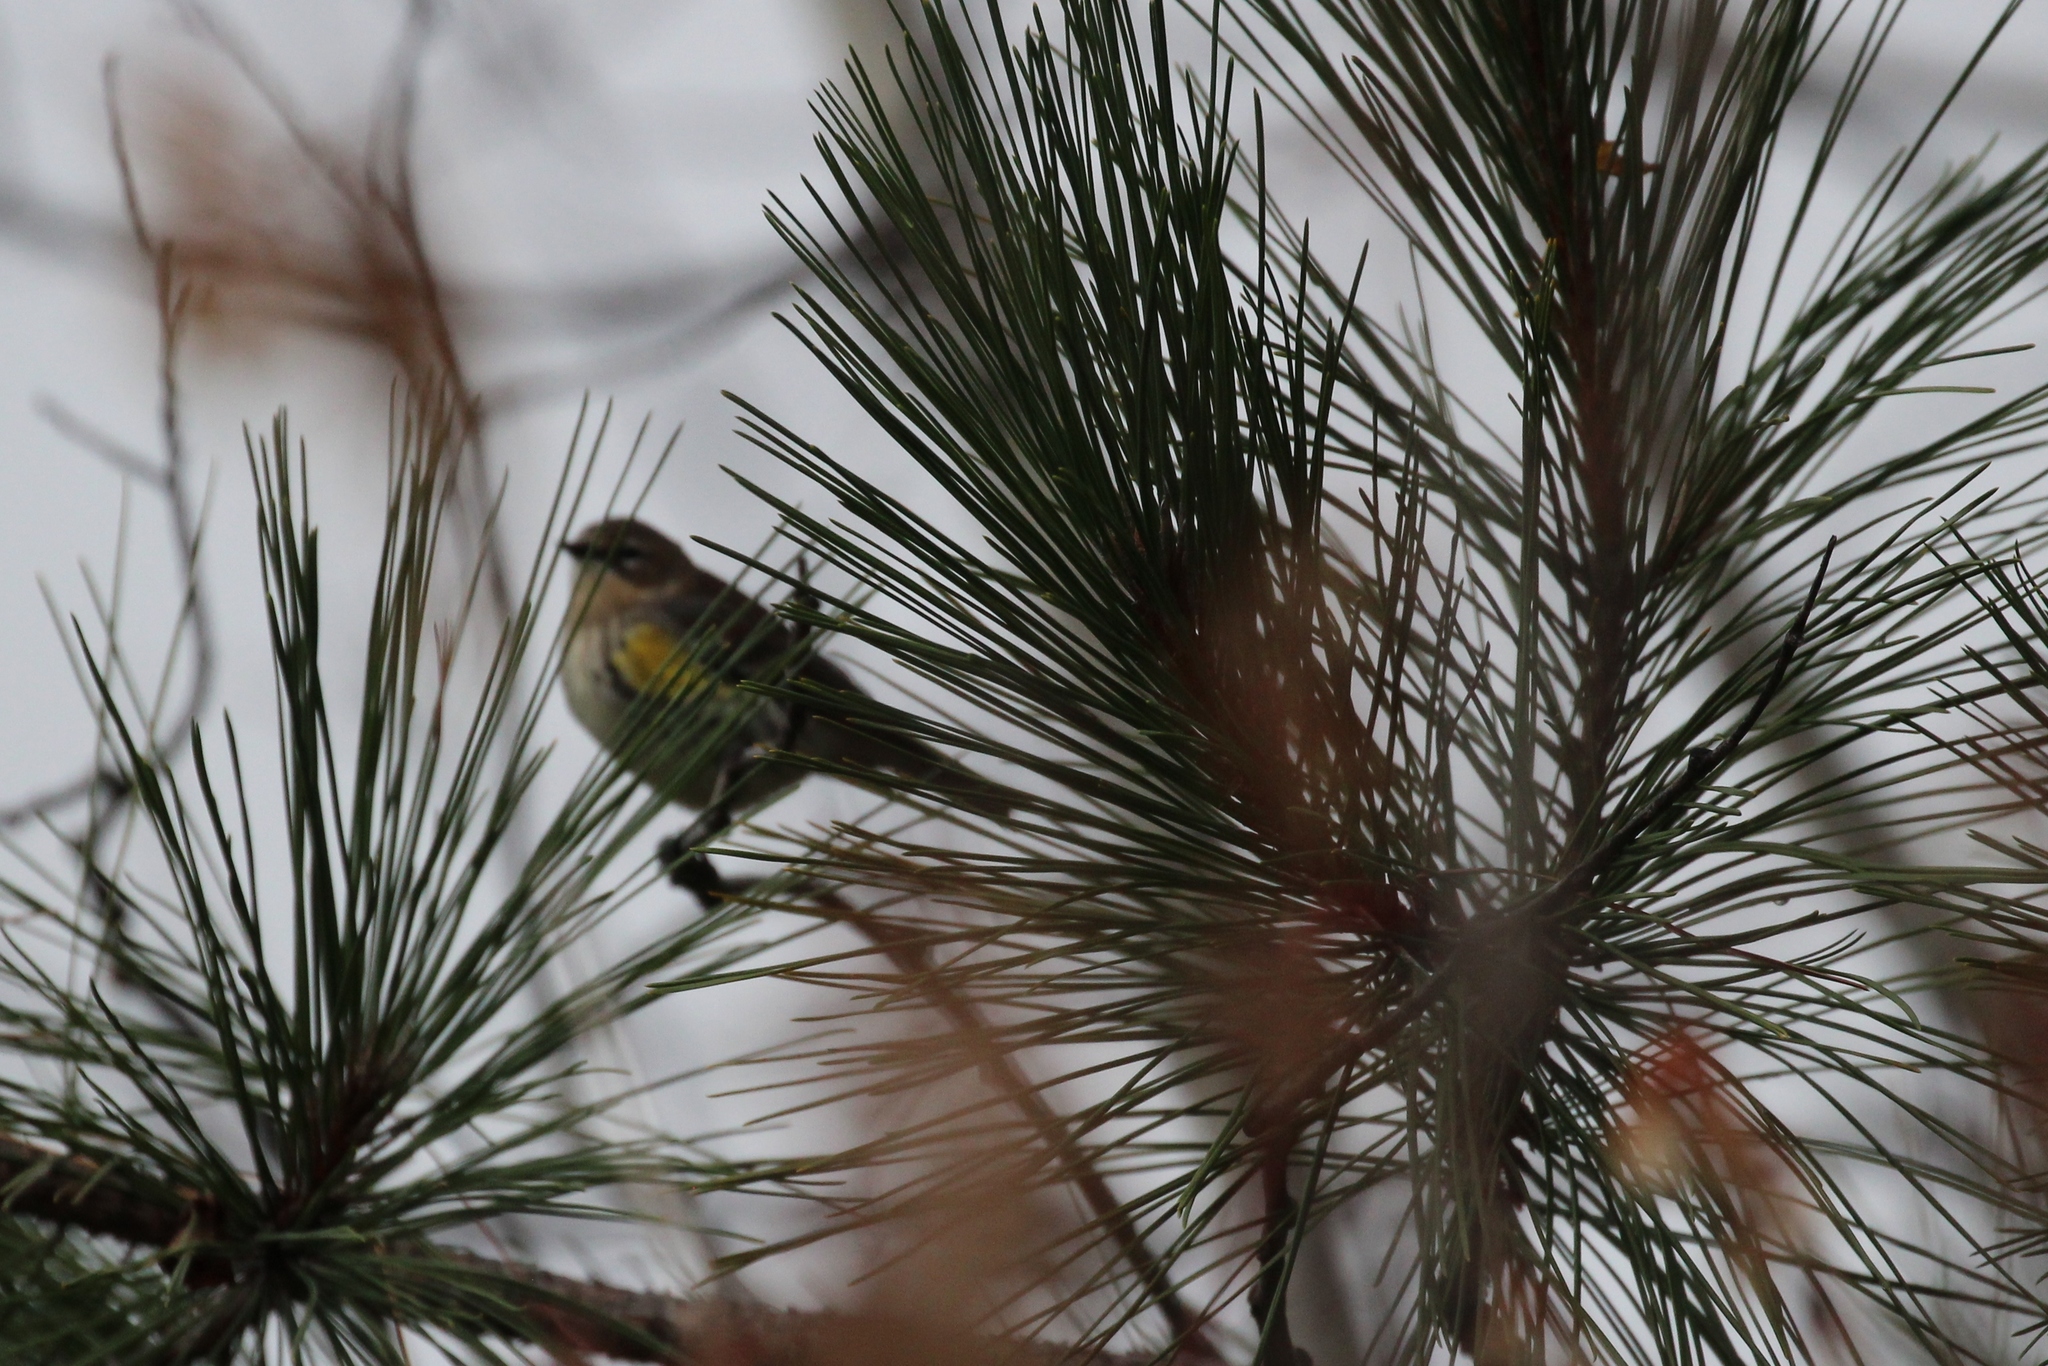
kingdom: Animalia
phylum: Chordata
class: Aves
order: Passeriformes
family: Parulidae
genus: Setophaga
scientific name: Setophaga coronata
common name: Myrtle warbler
